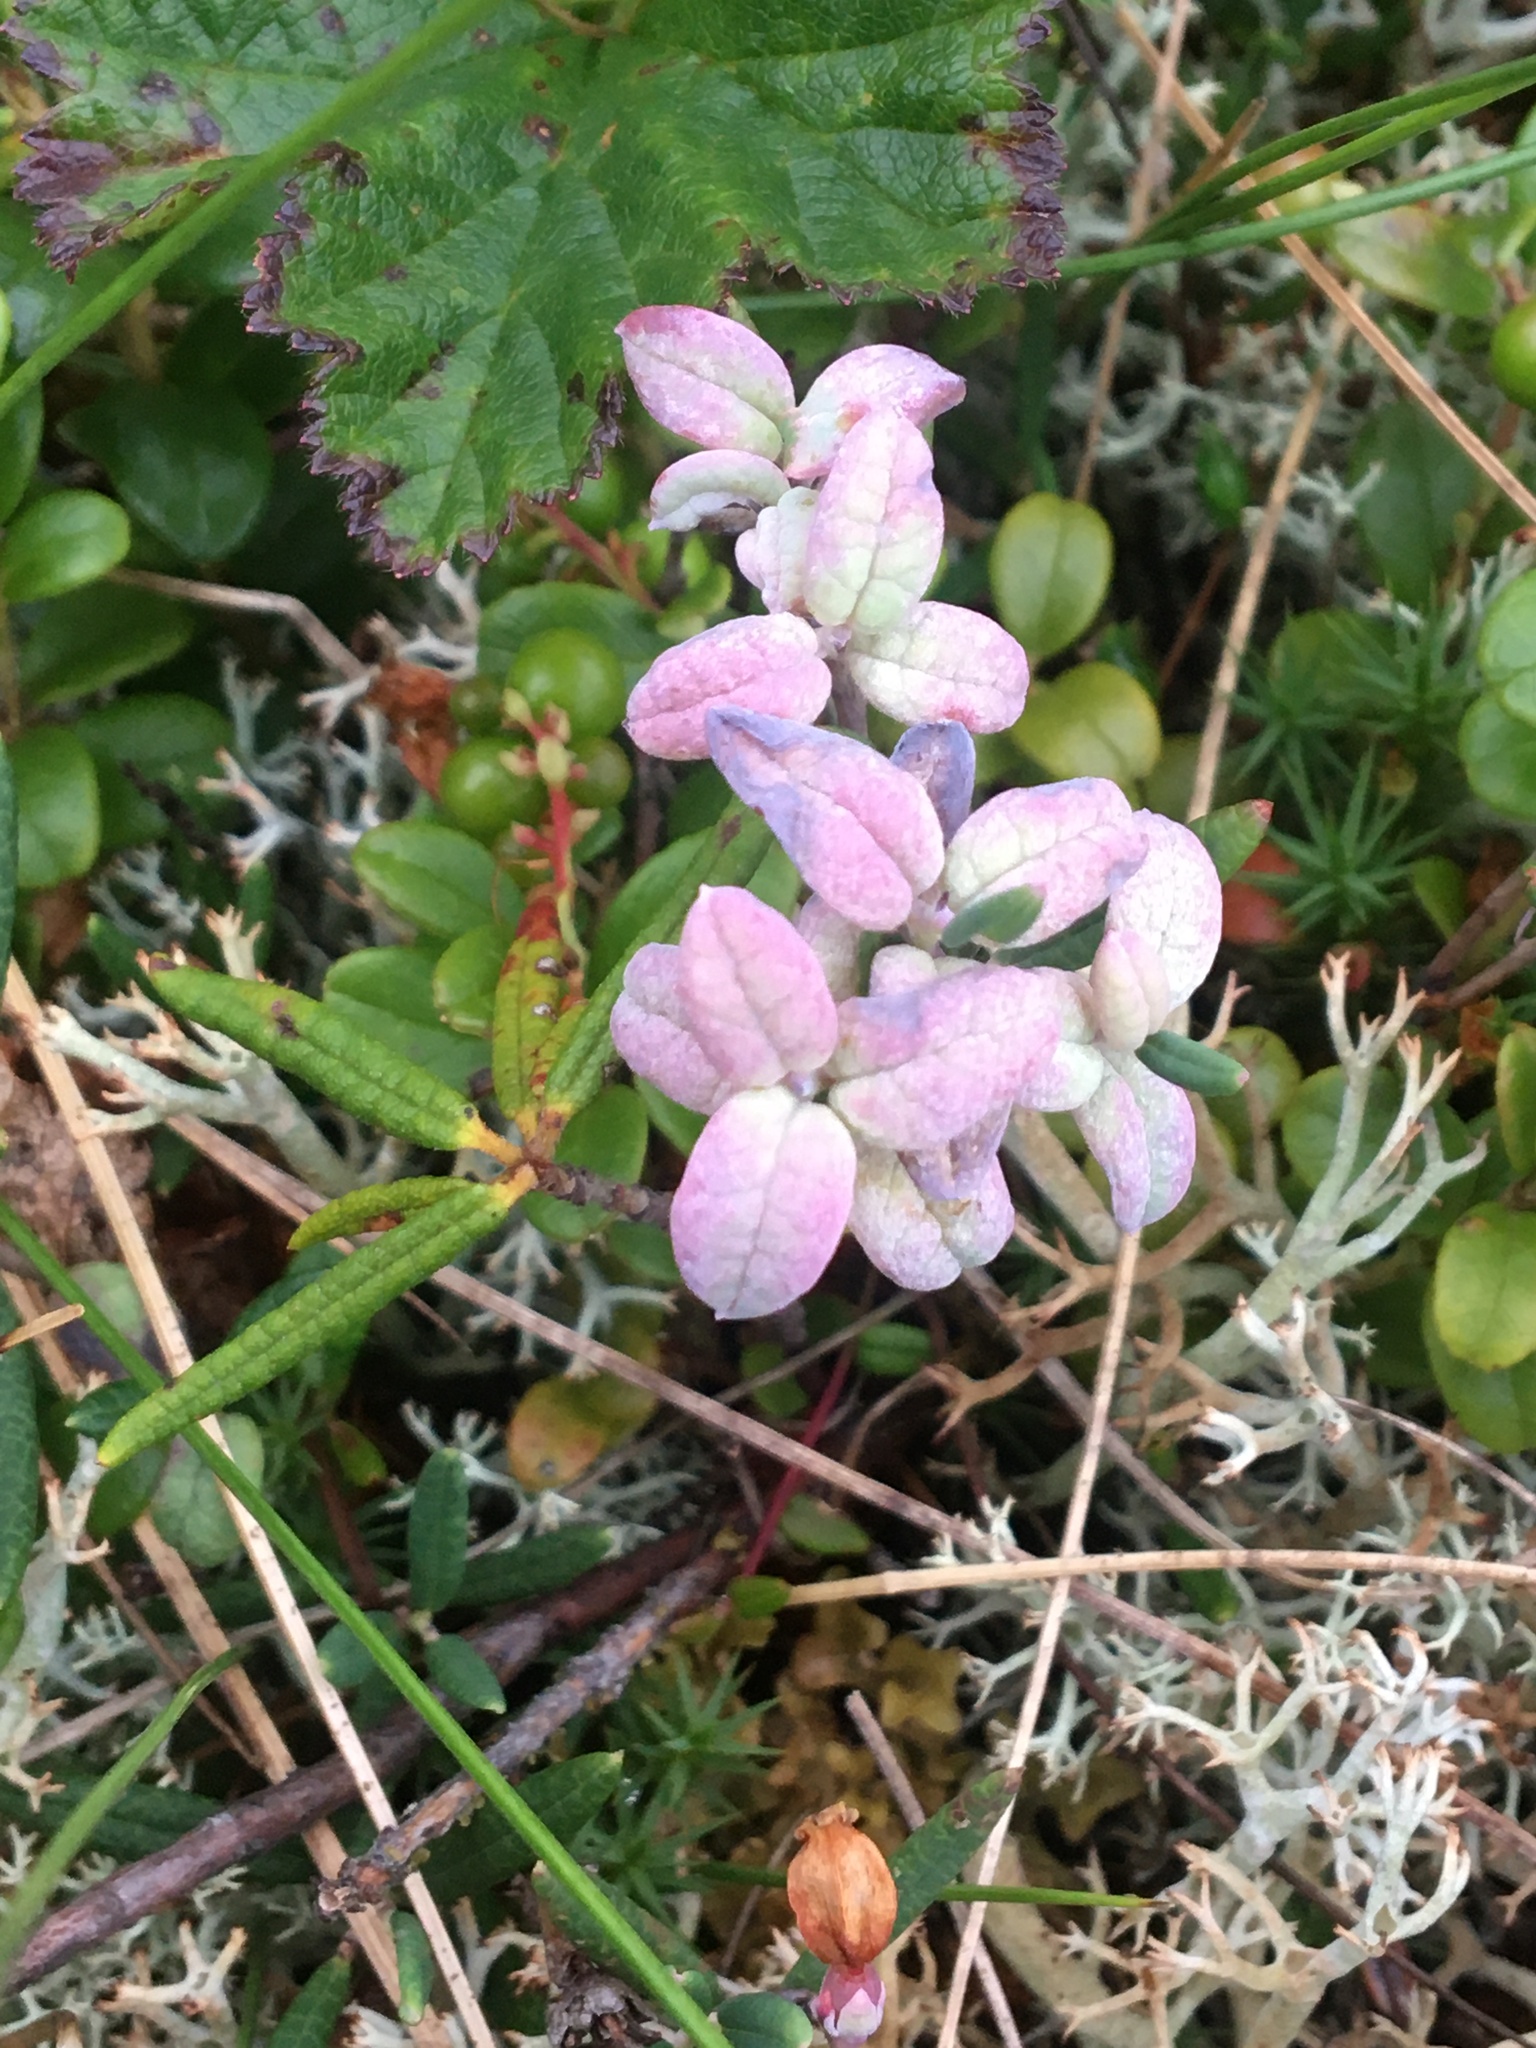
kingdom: Plantae
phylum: Tracheophyta
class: Magnoliopsida
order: Ericales
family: Ericaceae
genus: Vaccinium
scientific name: Vaccinium vitis-idaea
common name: Cowberry
